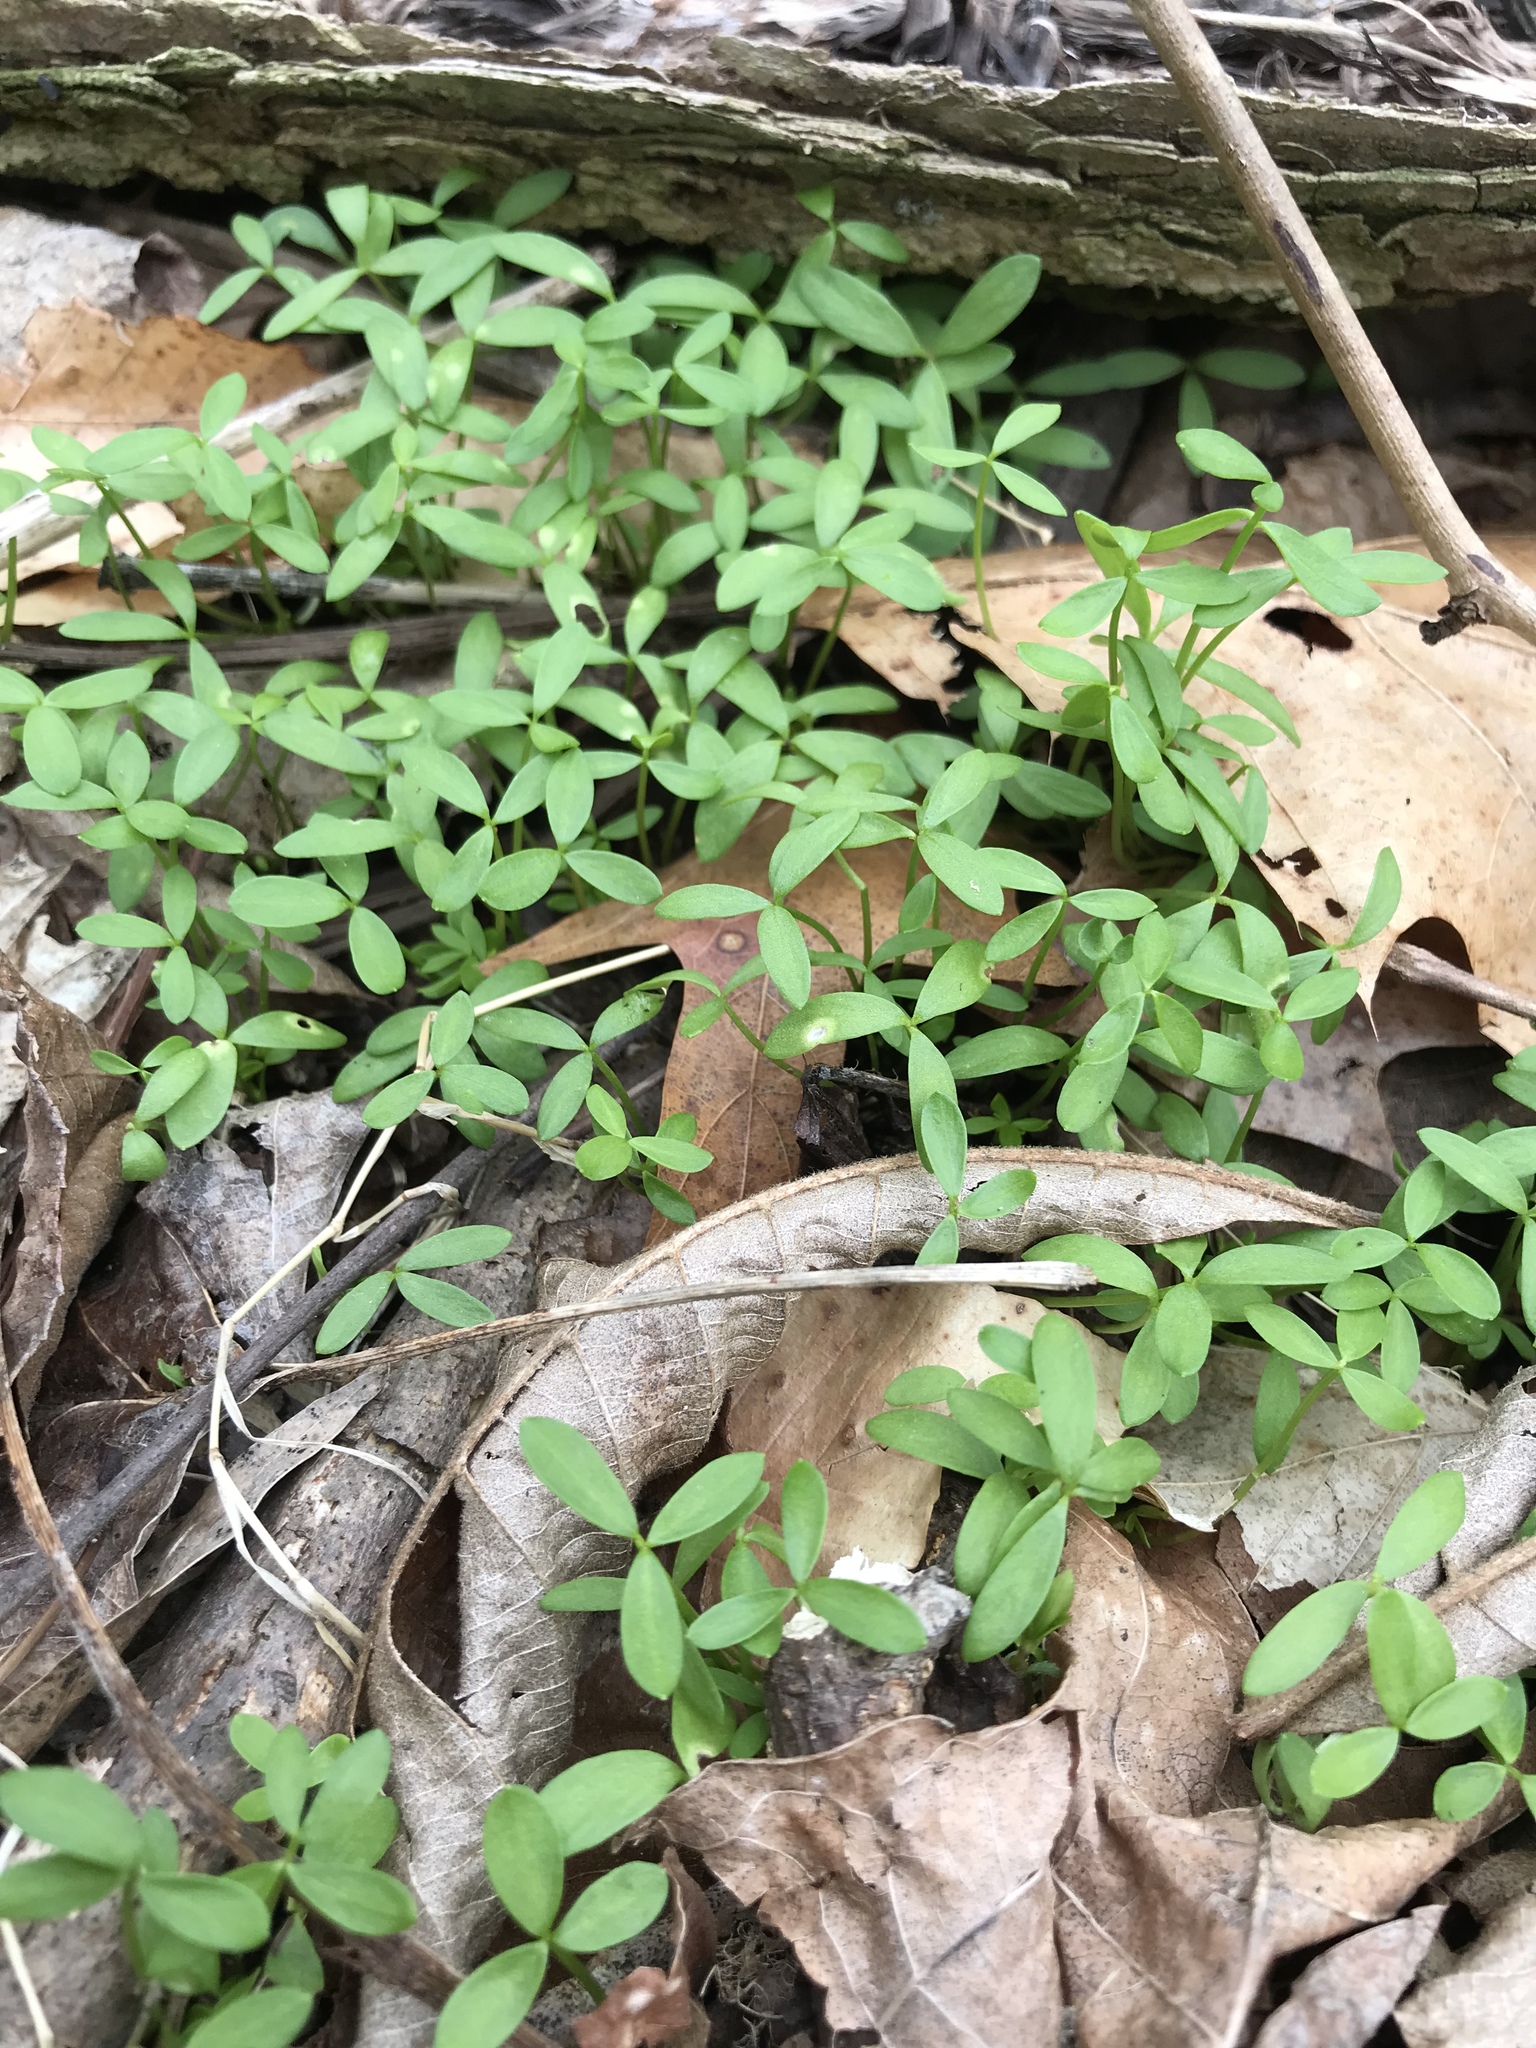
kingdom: Plantae
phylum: Tracheophyta
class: Magnoliopsida
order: Brassicales
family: Limnanthaceae
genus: Floerkea
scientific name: Floerkea proserpinacoides
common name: False mermaid
